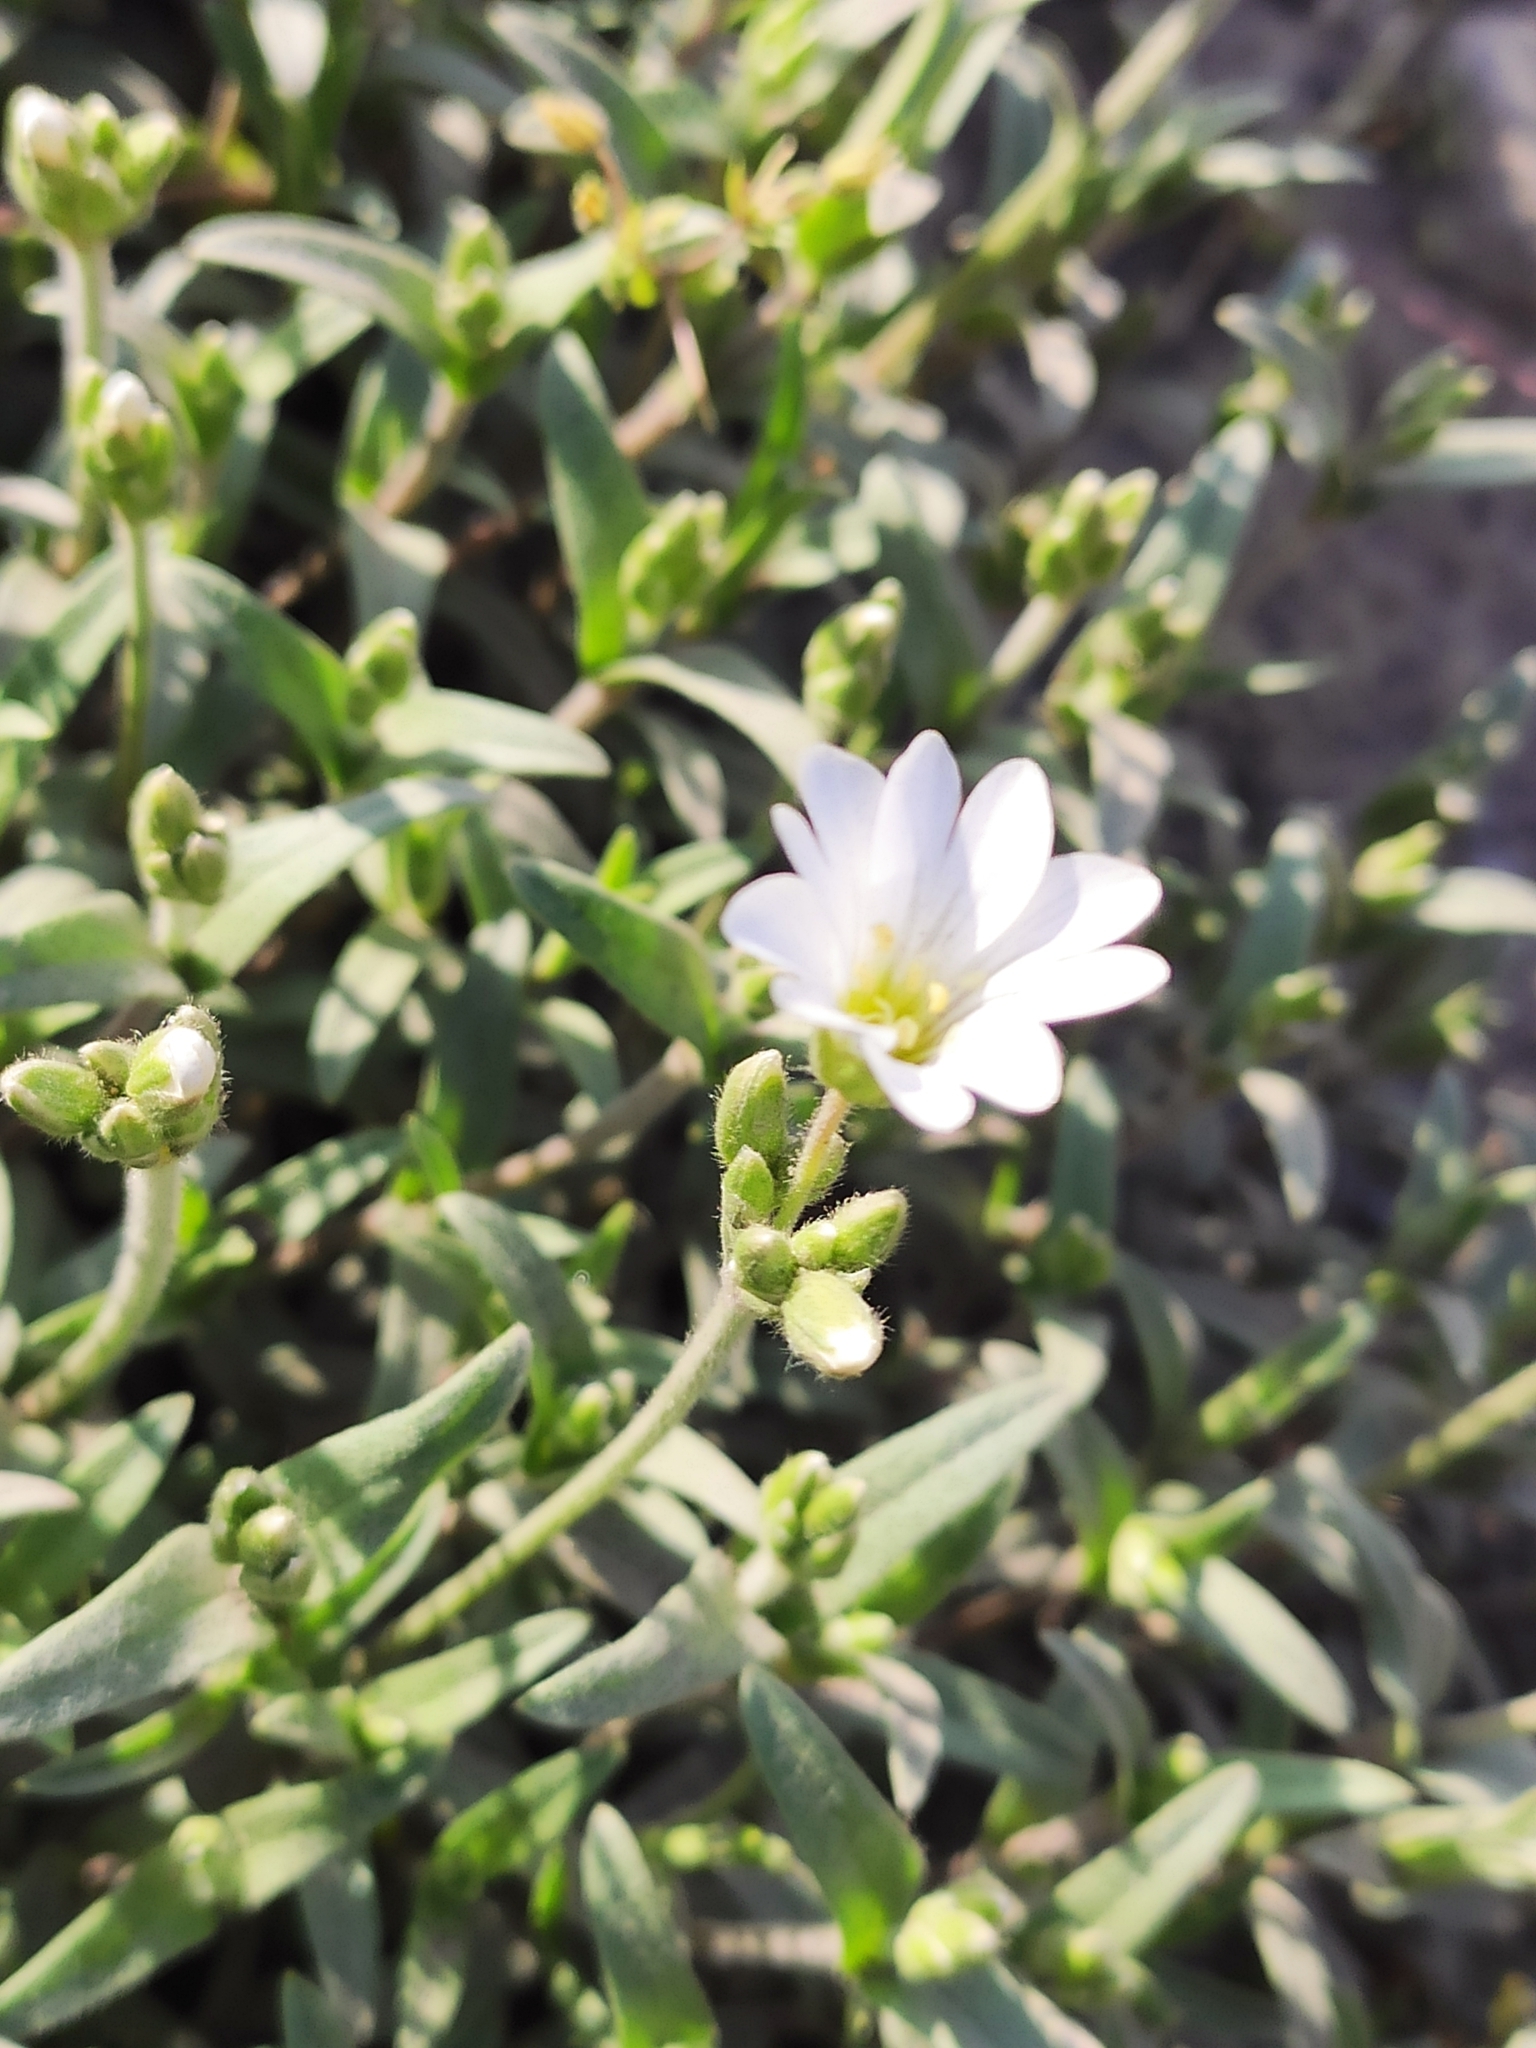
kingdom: Plantae
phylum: Tracheophyta
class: Magnoliopsida
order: Caryophyllales
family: Caryophyllaceae
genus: Dichodon
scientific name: Dichodon viscidum
